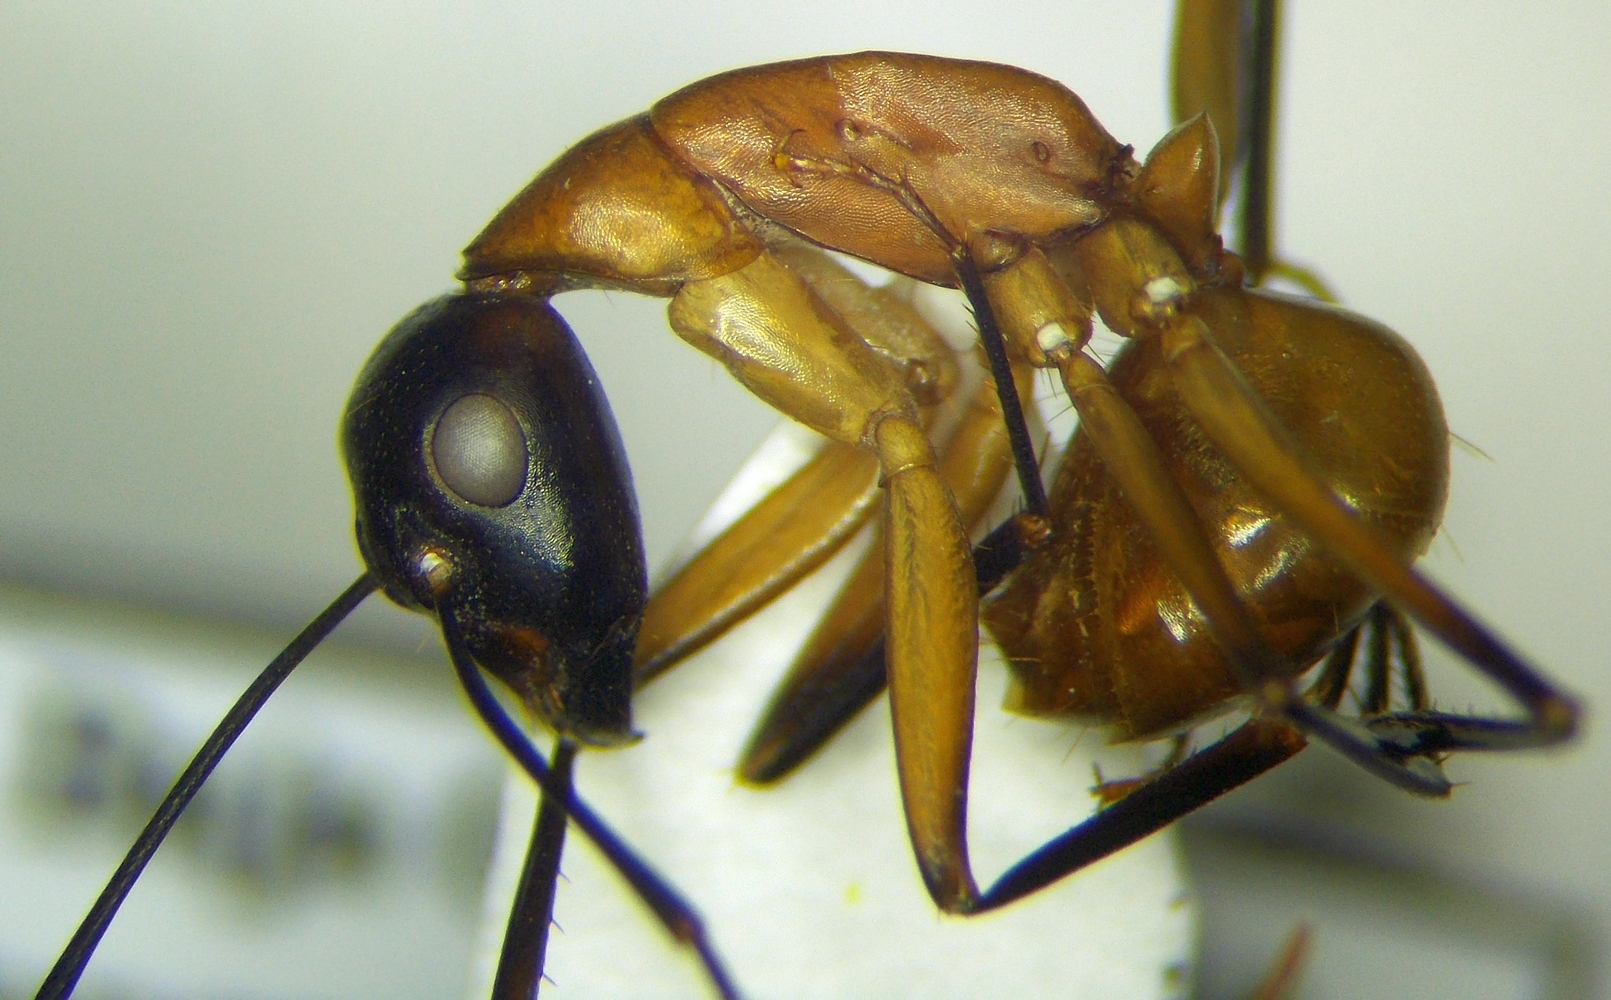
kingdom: Animalia
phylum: Arthropoda
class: Insecta
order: Hymenoptera
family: Formicidae
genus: Camponotus
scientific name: Camponotus ocreatus
